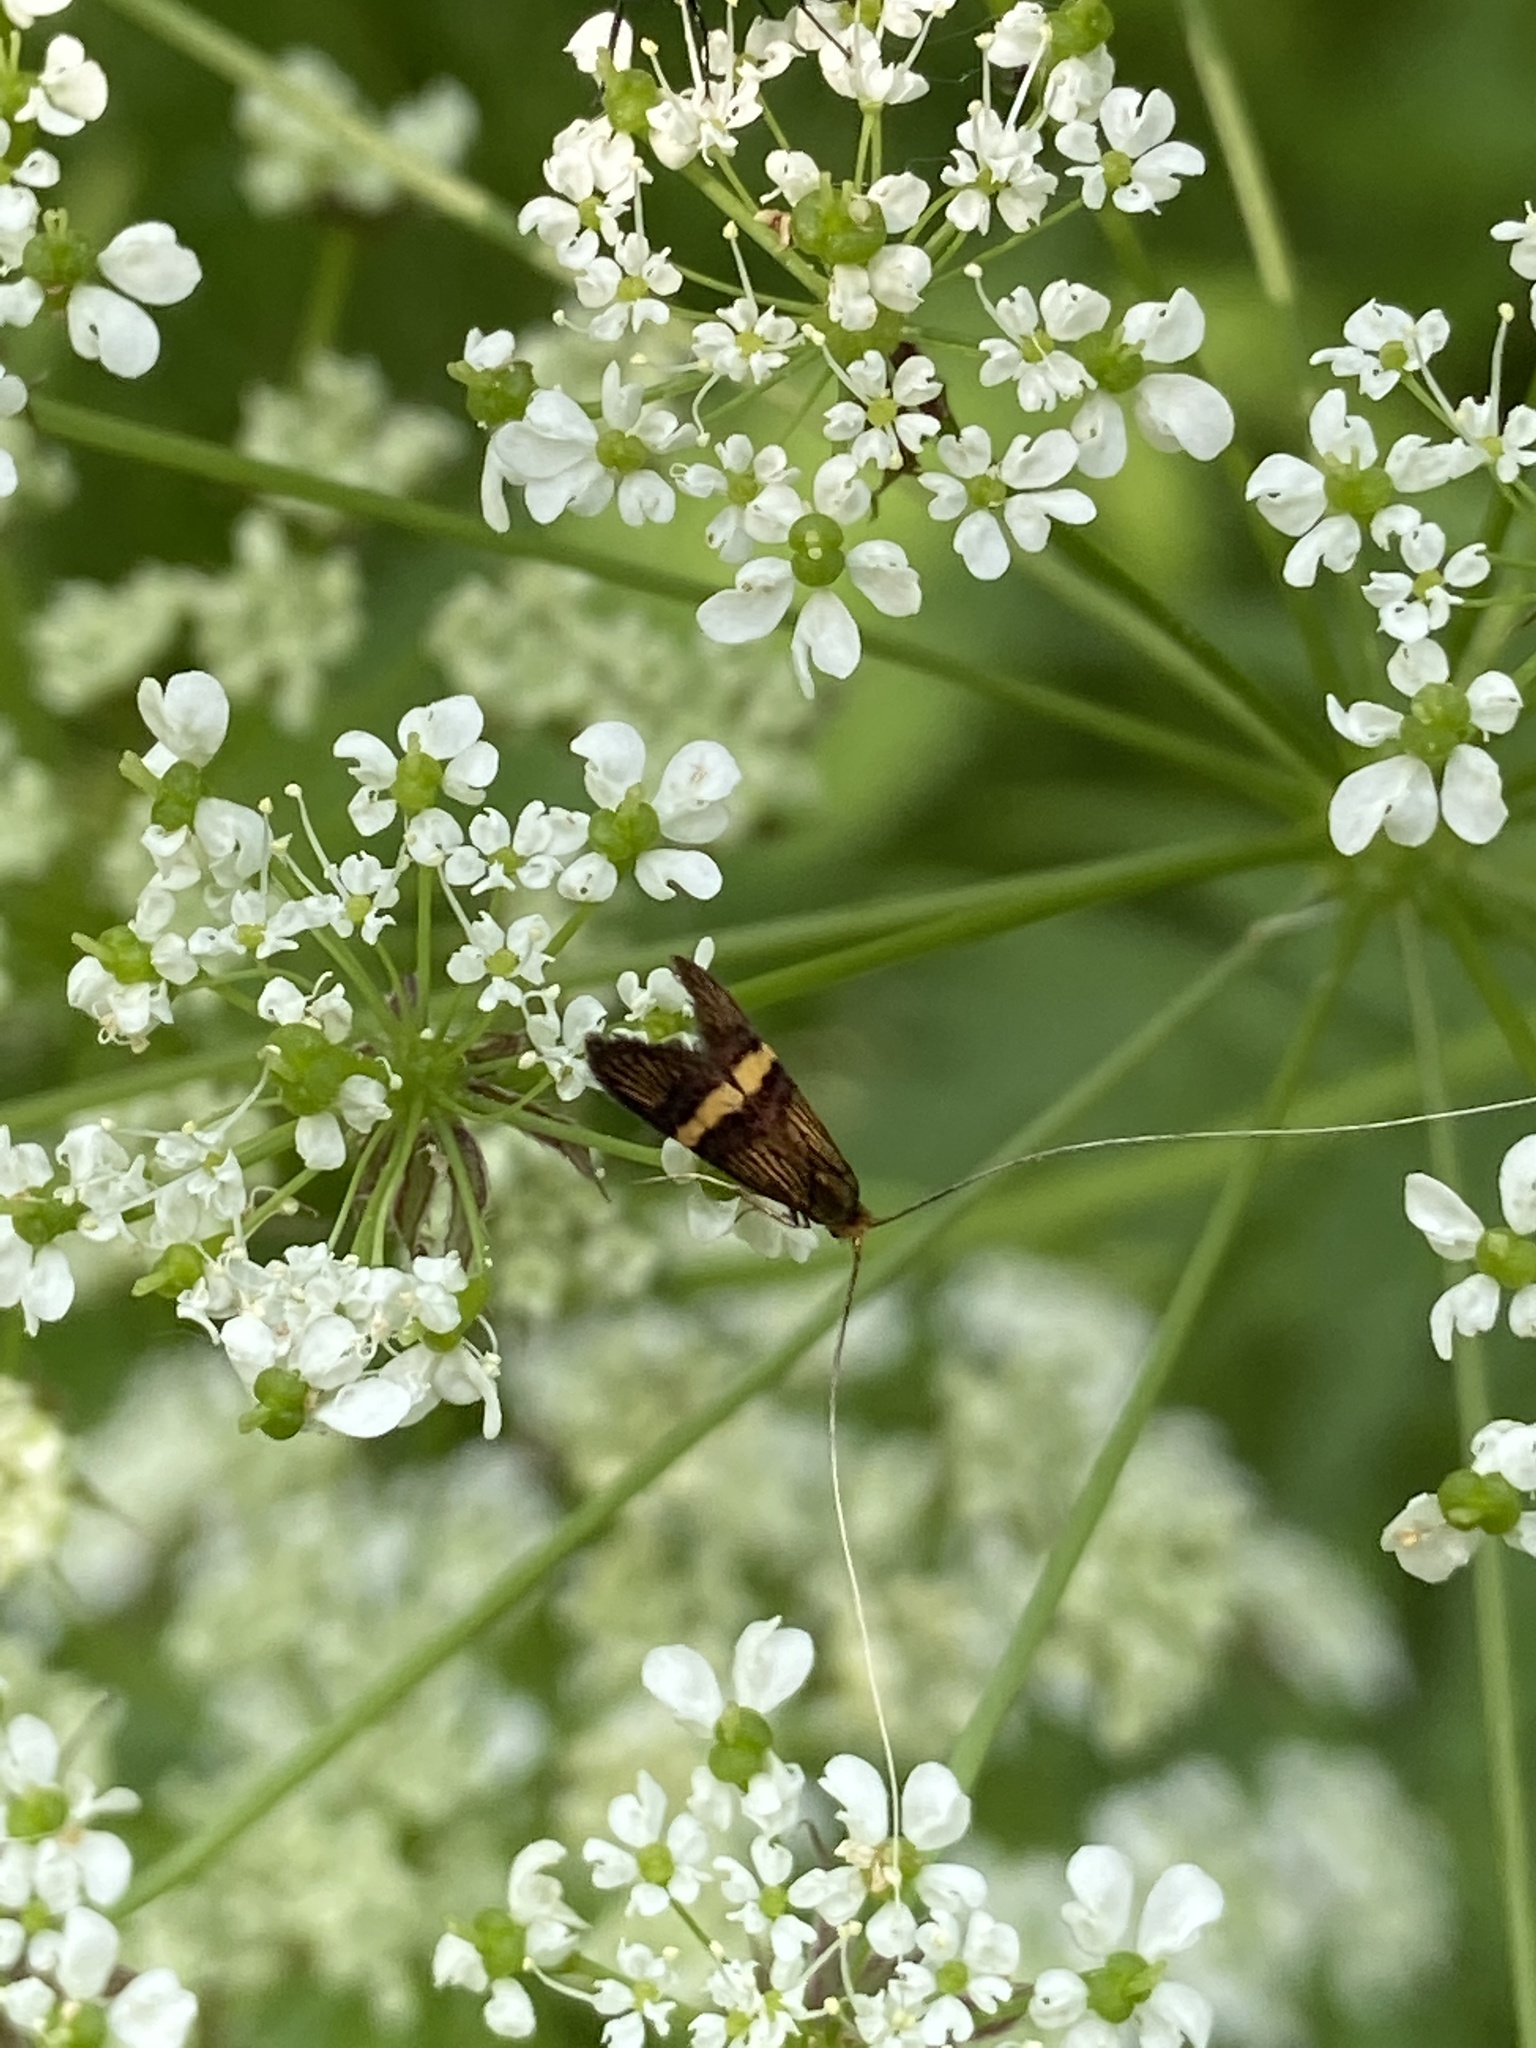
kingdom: Animalia
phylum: Arthropoda
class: Insecta
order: Lepidoptera
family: Adelidae
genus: Nemophora
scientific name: Nemophora degeerella
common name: Yellow-barred long-horn
